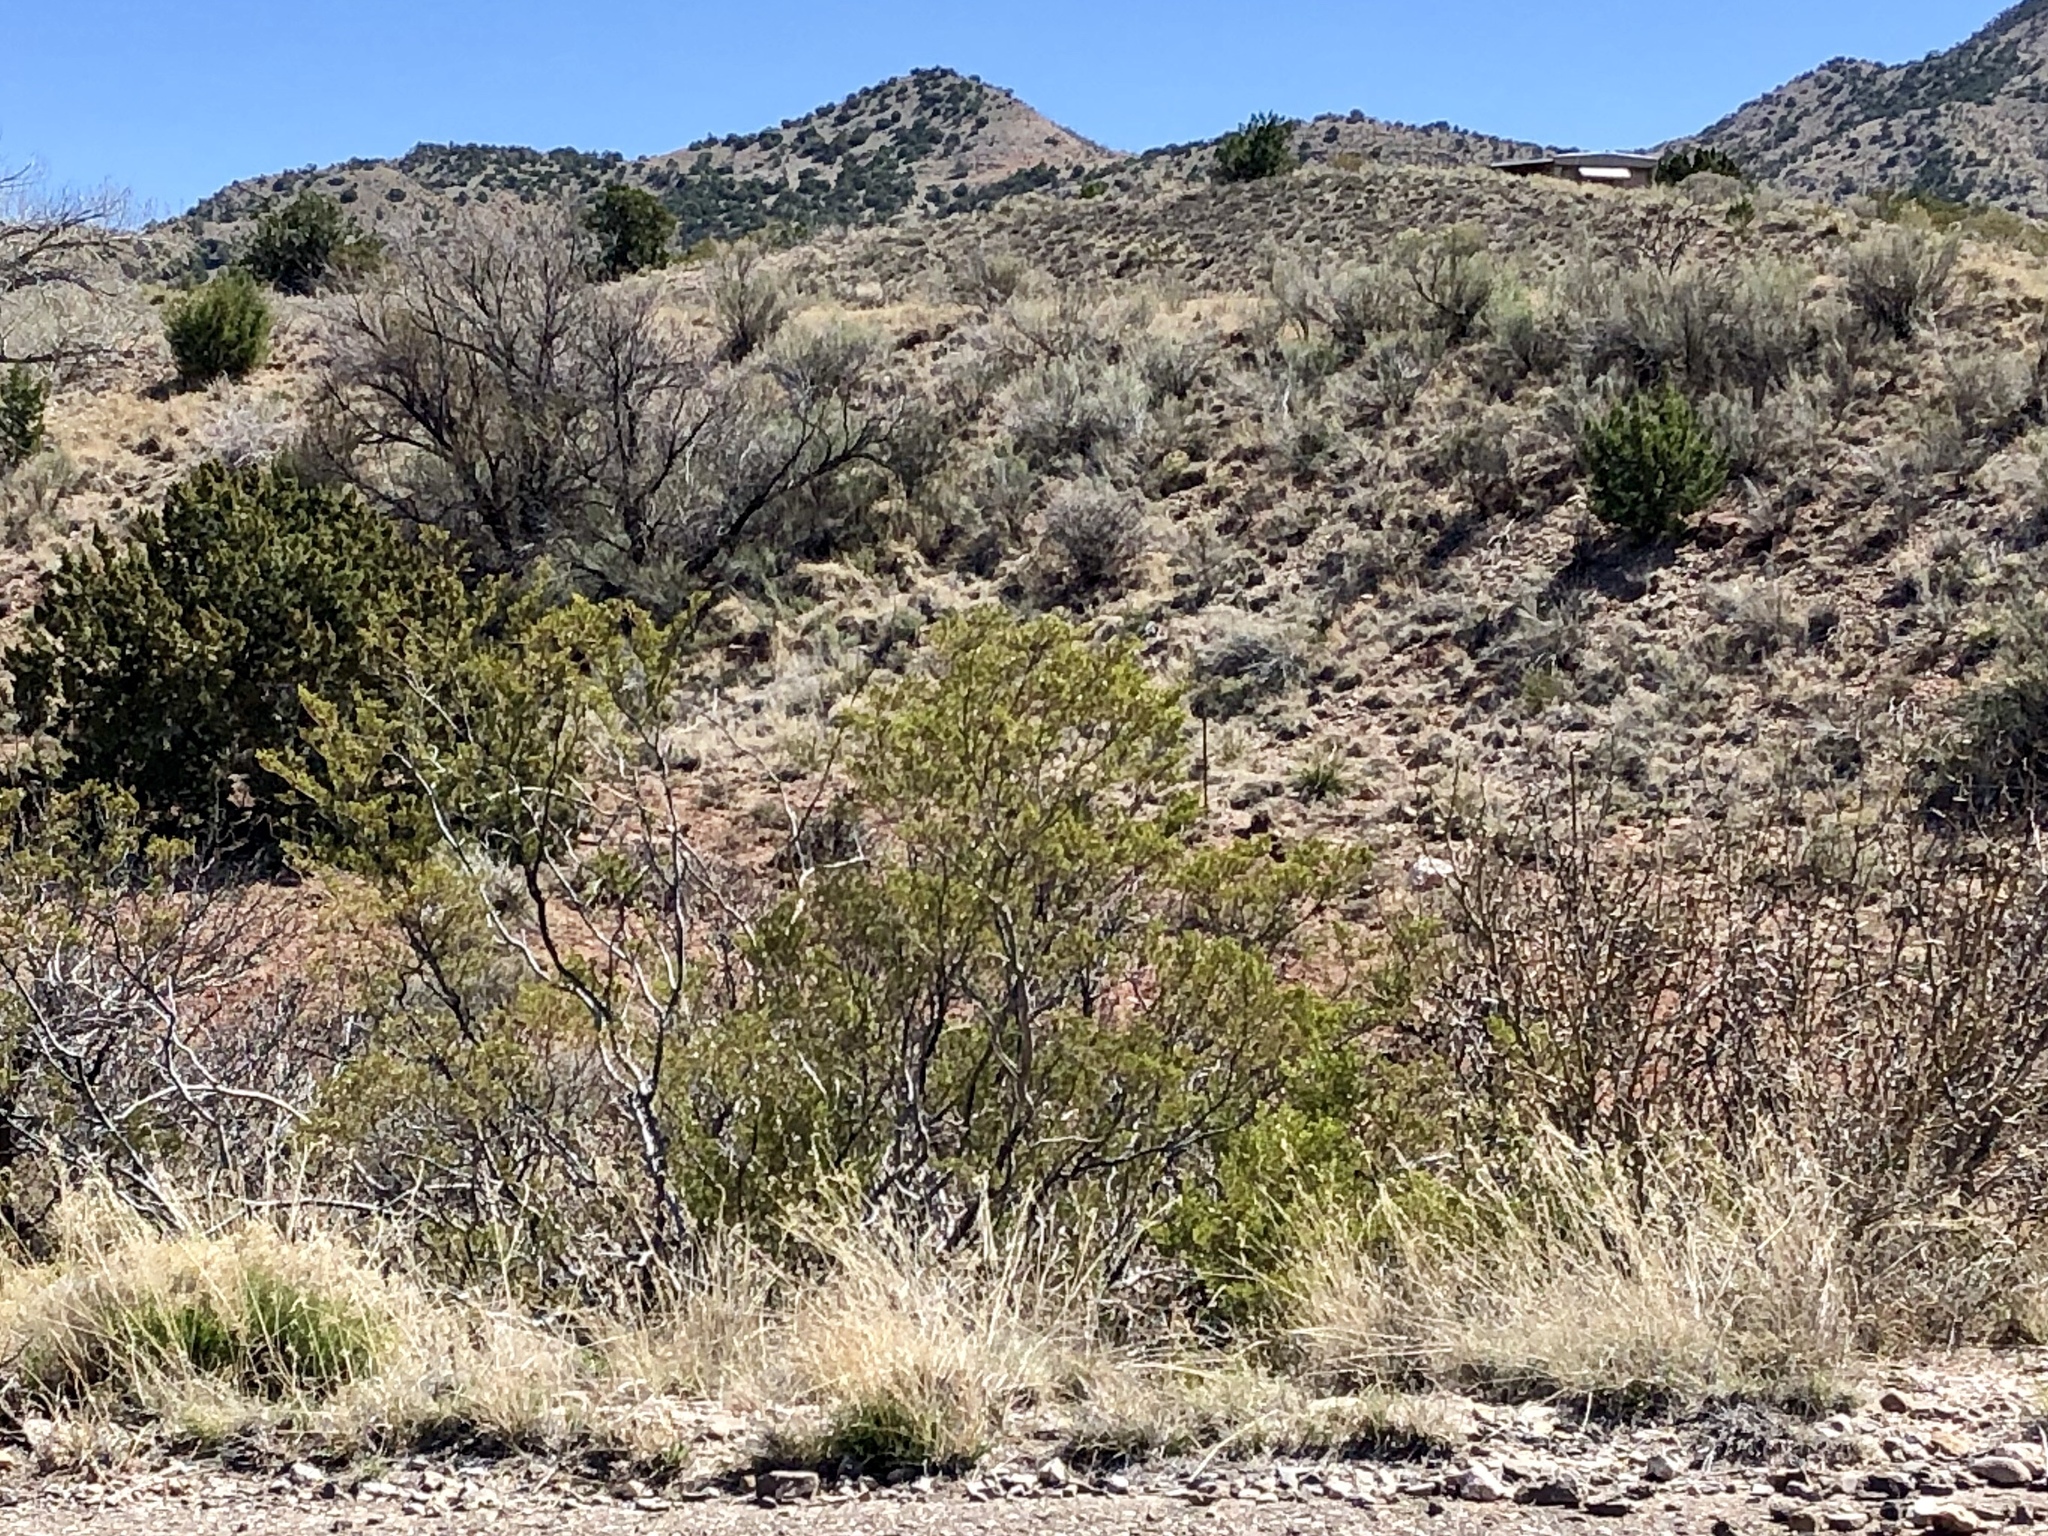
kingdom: Plantae
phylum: Tracheophyta
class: Magnoliopsida
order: Zygophyllales
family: Zygophyllaceae
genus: Larrea
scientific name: Larrea tridentata
